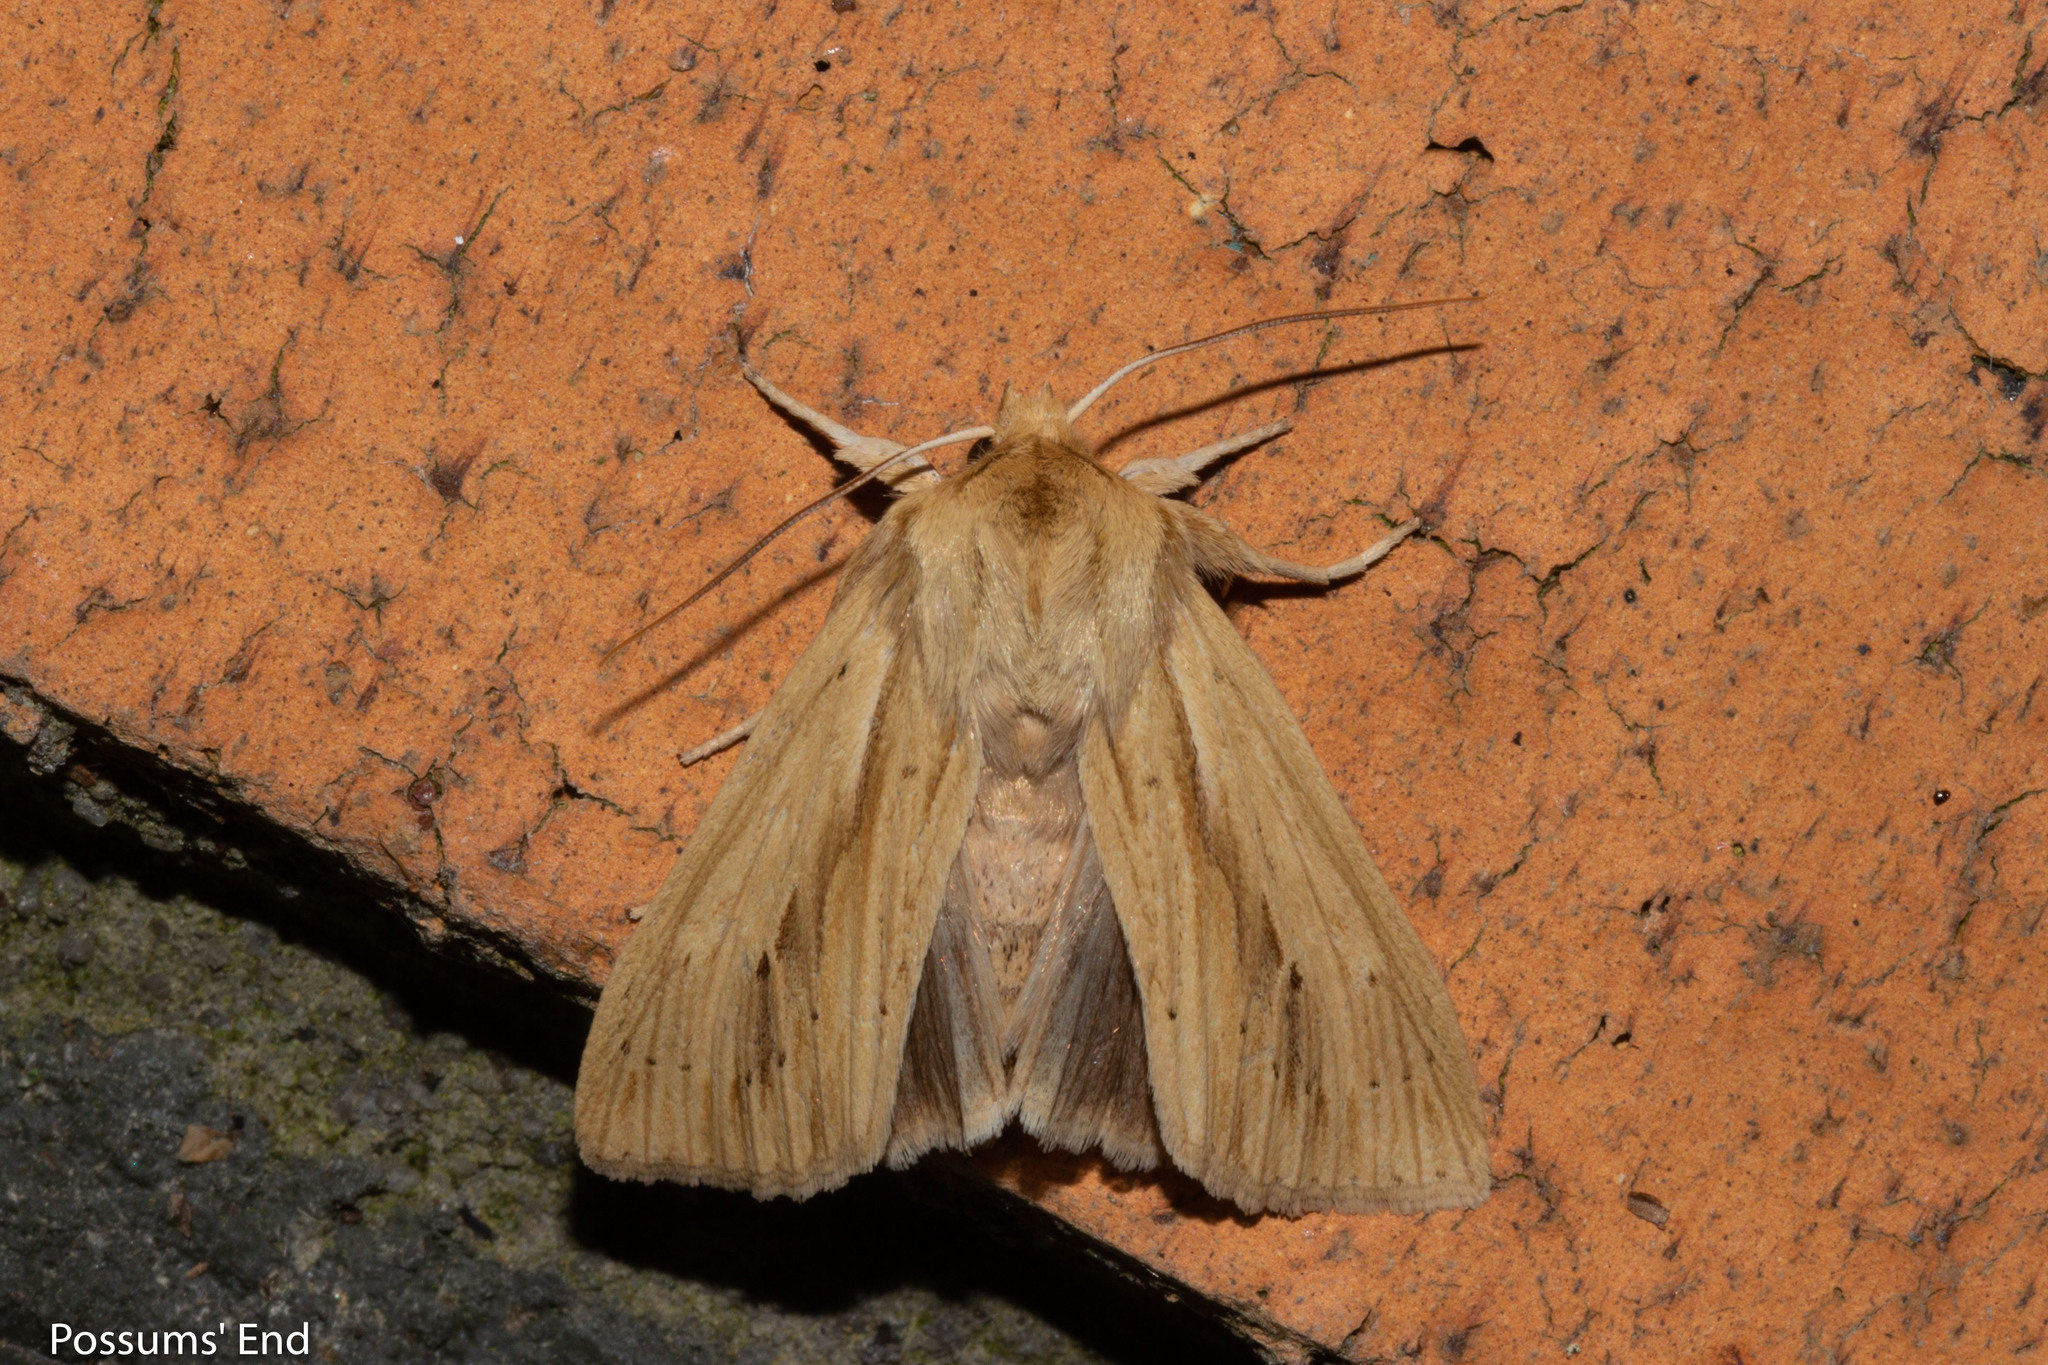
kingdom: Animalia
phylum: Arthropoda
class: Insecta
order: Lepidoptera
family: Noctuidae
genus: Ichneutica
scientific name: Ichneutica semivittata
